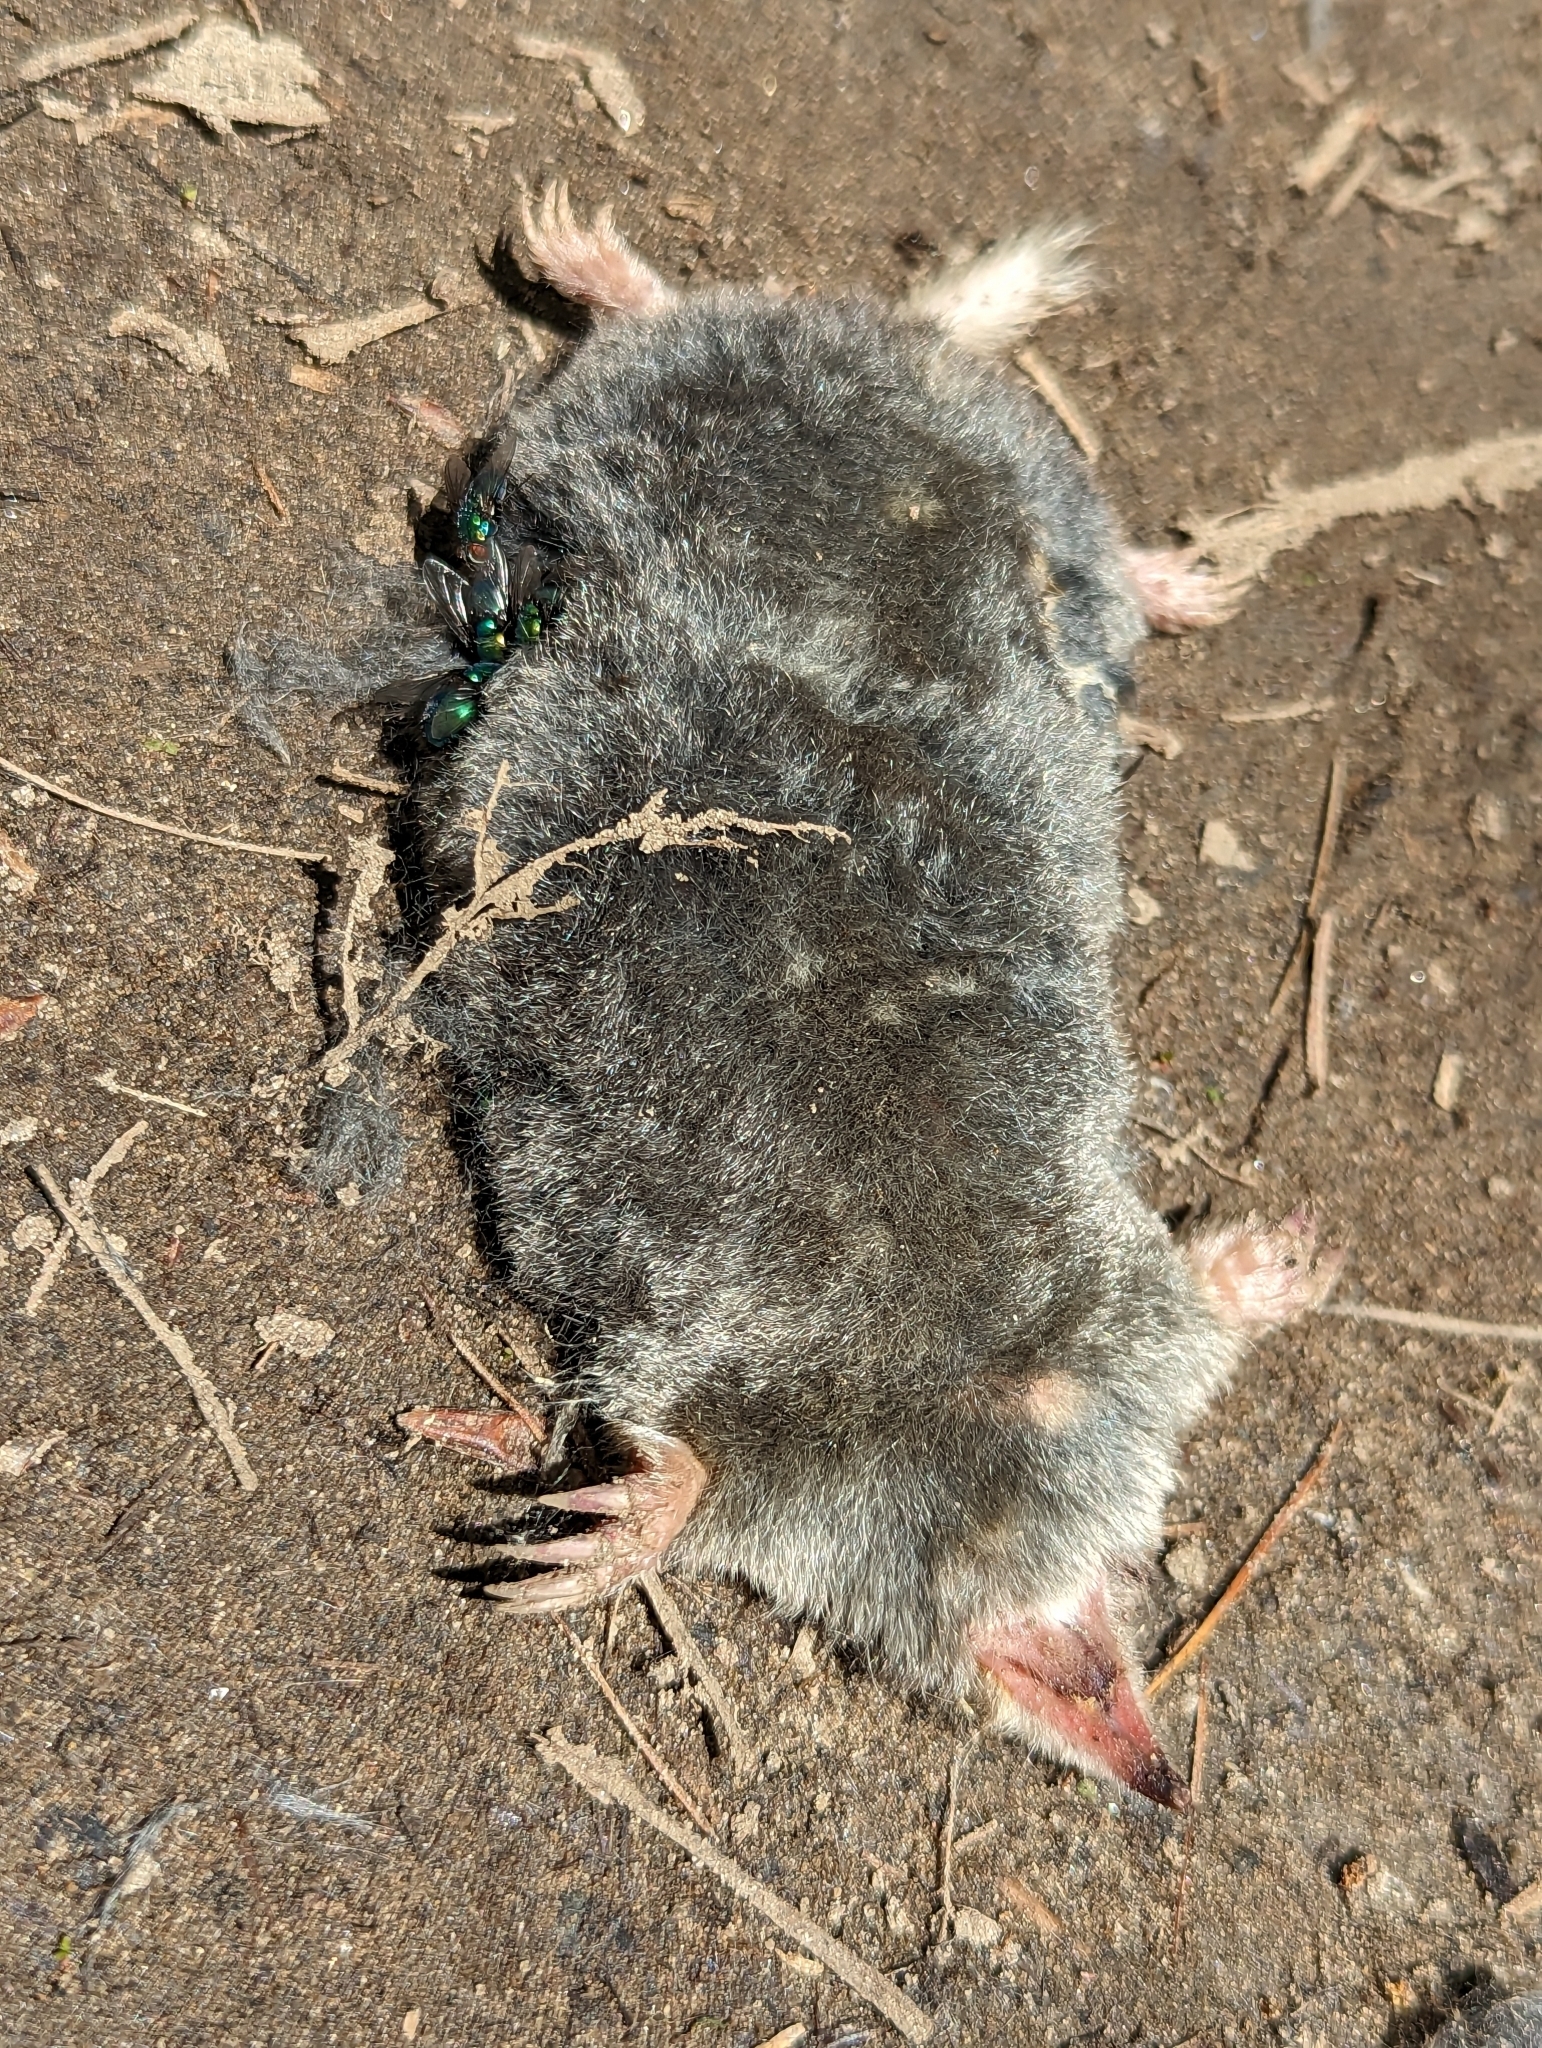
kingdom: Animalia
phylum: Chordata
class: Mammalia
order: Soricomorpha
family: Talpidae
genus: Parascalops
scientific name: Parascalops breweri
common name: Hairy-tailed mole
